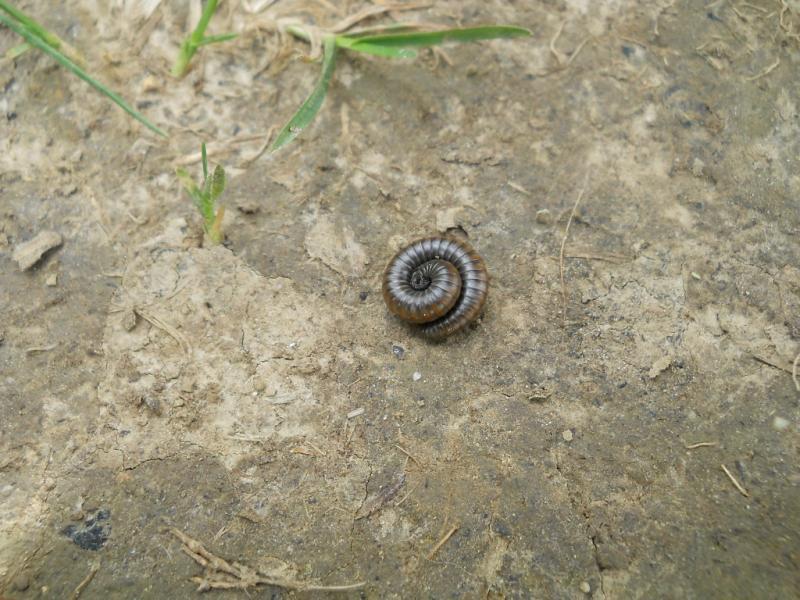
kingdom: Animalia
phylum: Arthropoda
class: Diplopoda
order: Julida
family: Julidae
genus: Ommatoiulus
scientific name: Ommatoiulus rutilans
